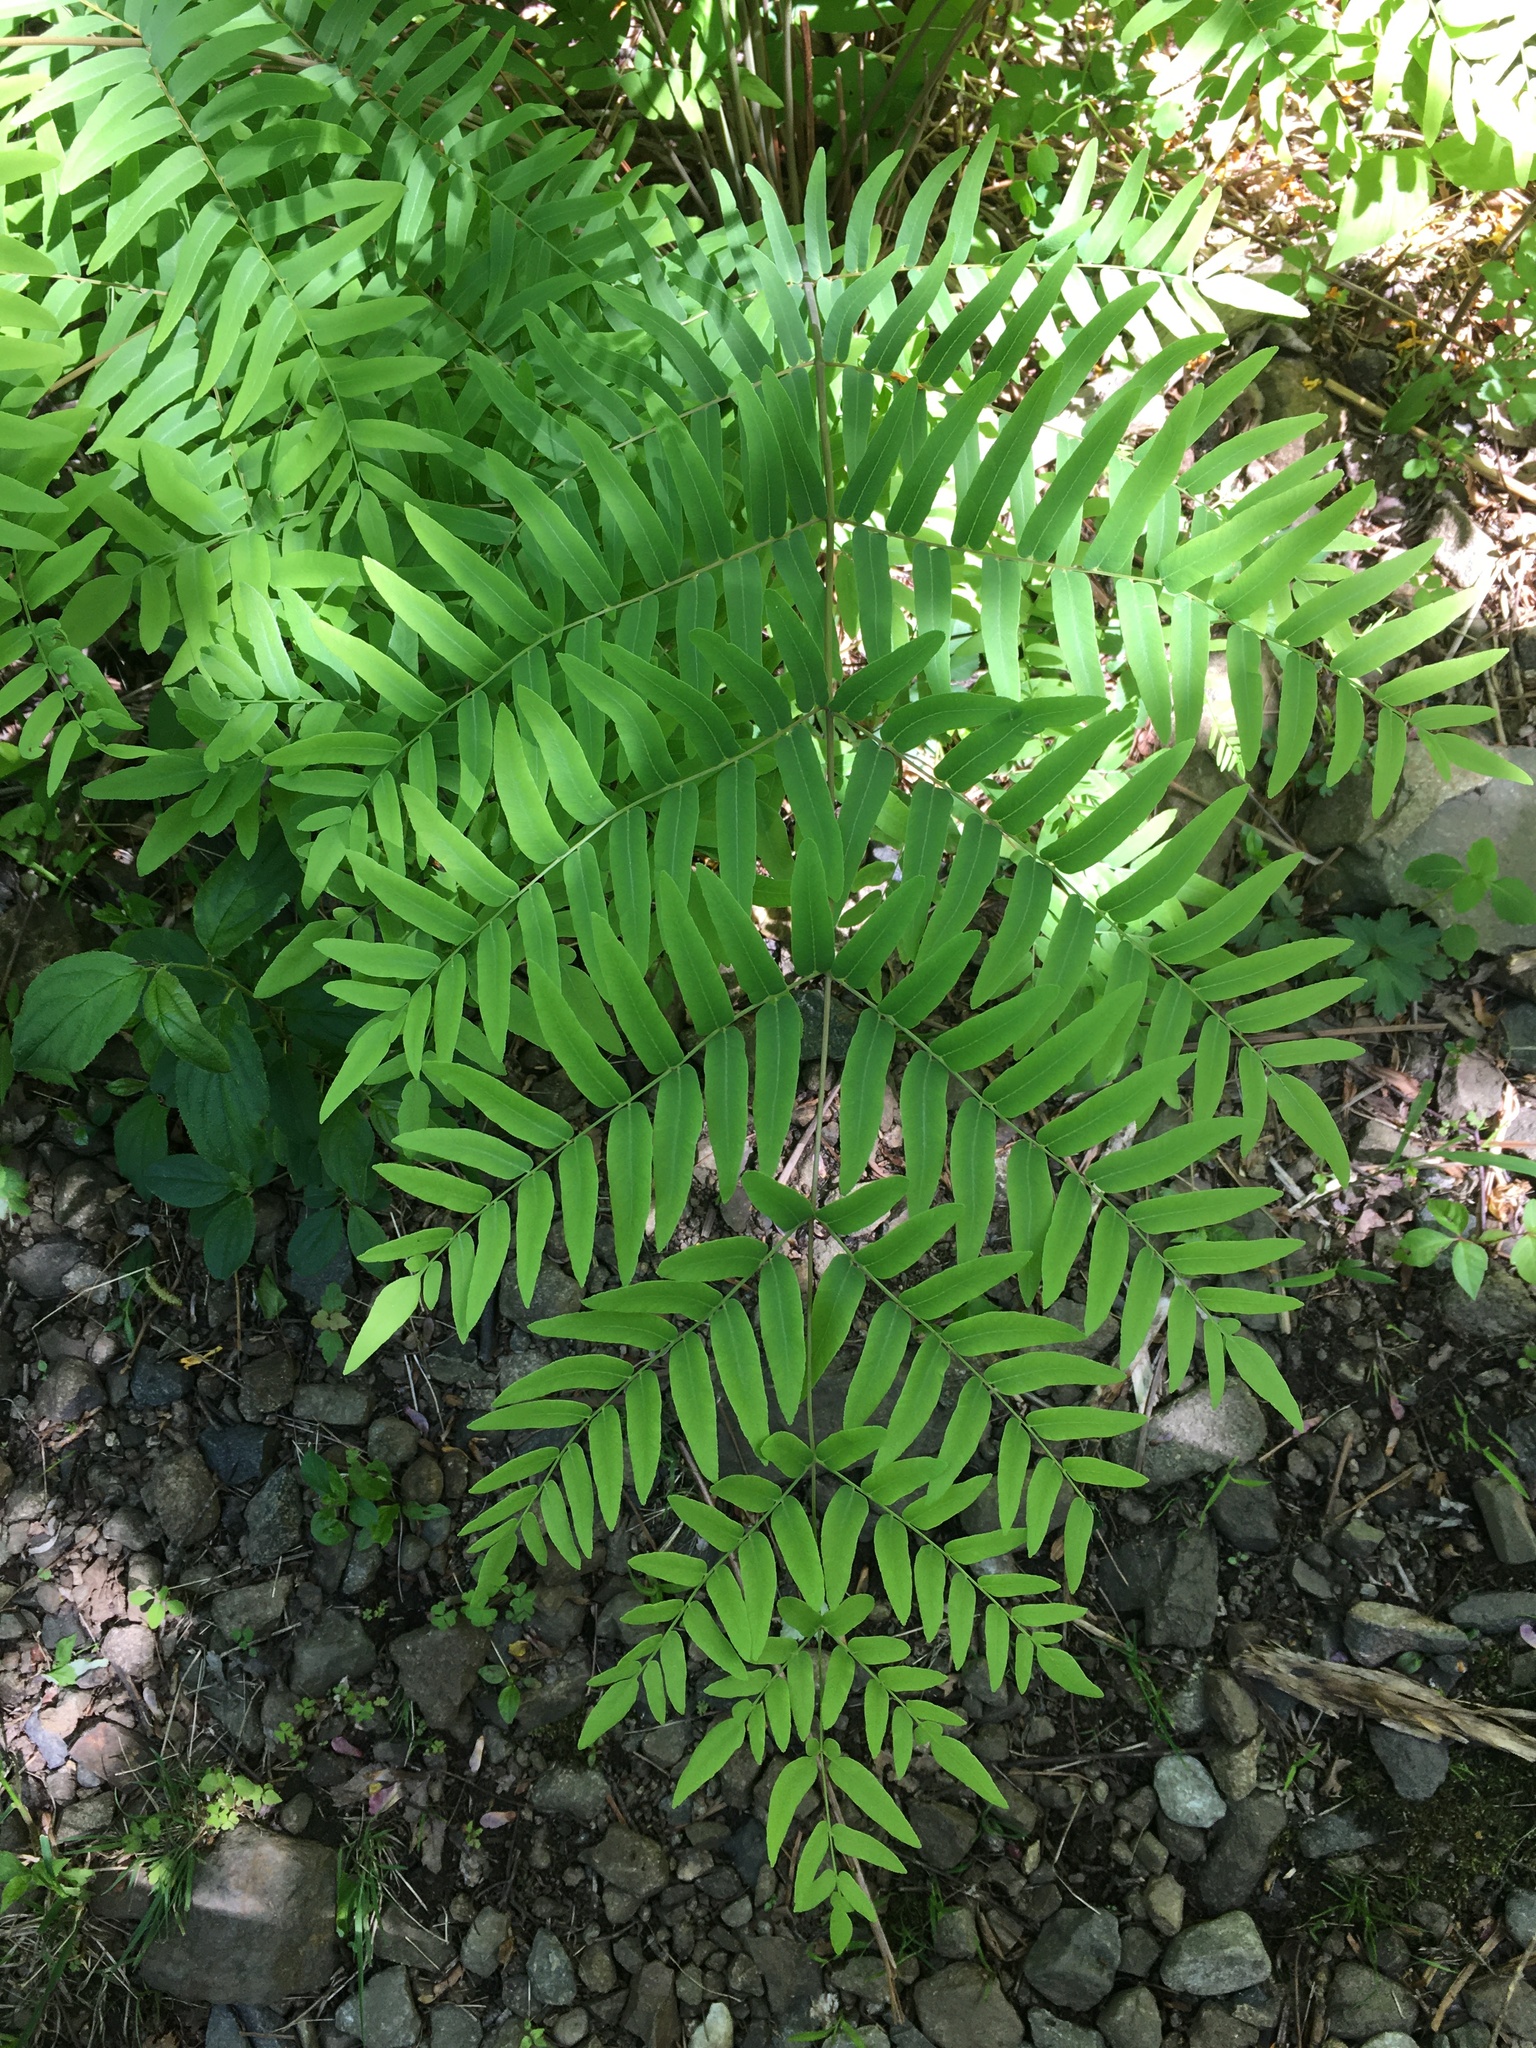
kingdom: Plantae
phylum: Tracheophyta
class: Polypodiopsida
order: Osmundales
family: Osmundaceae
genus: Osmunda
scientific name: Osmunda spectabilis
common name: American royal fern
